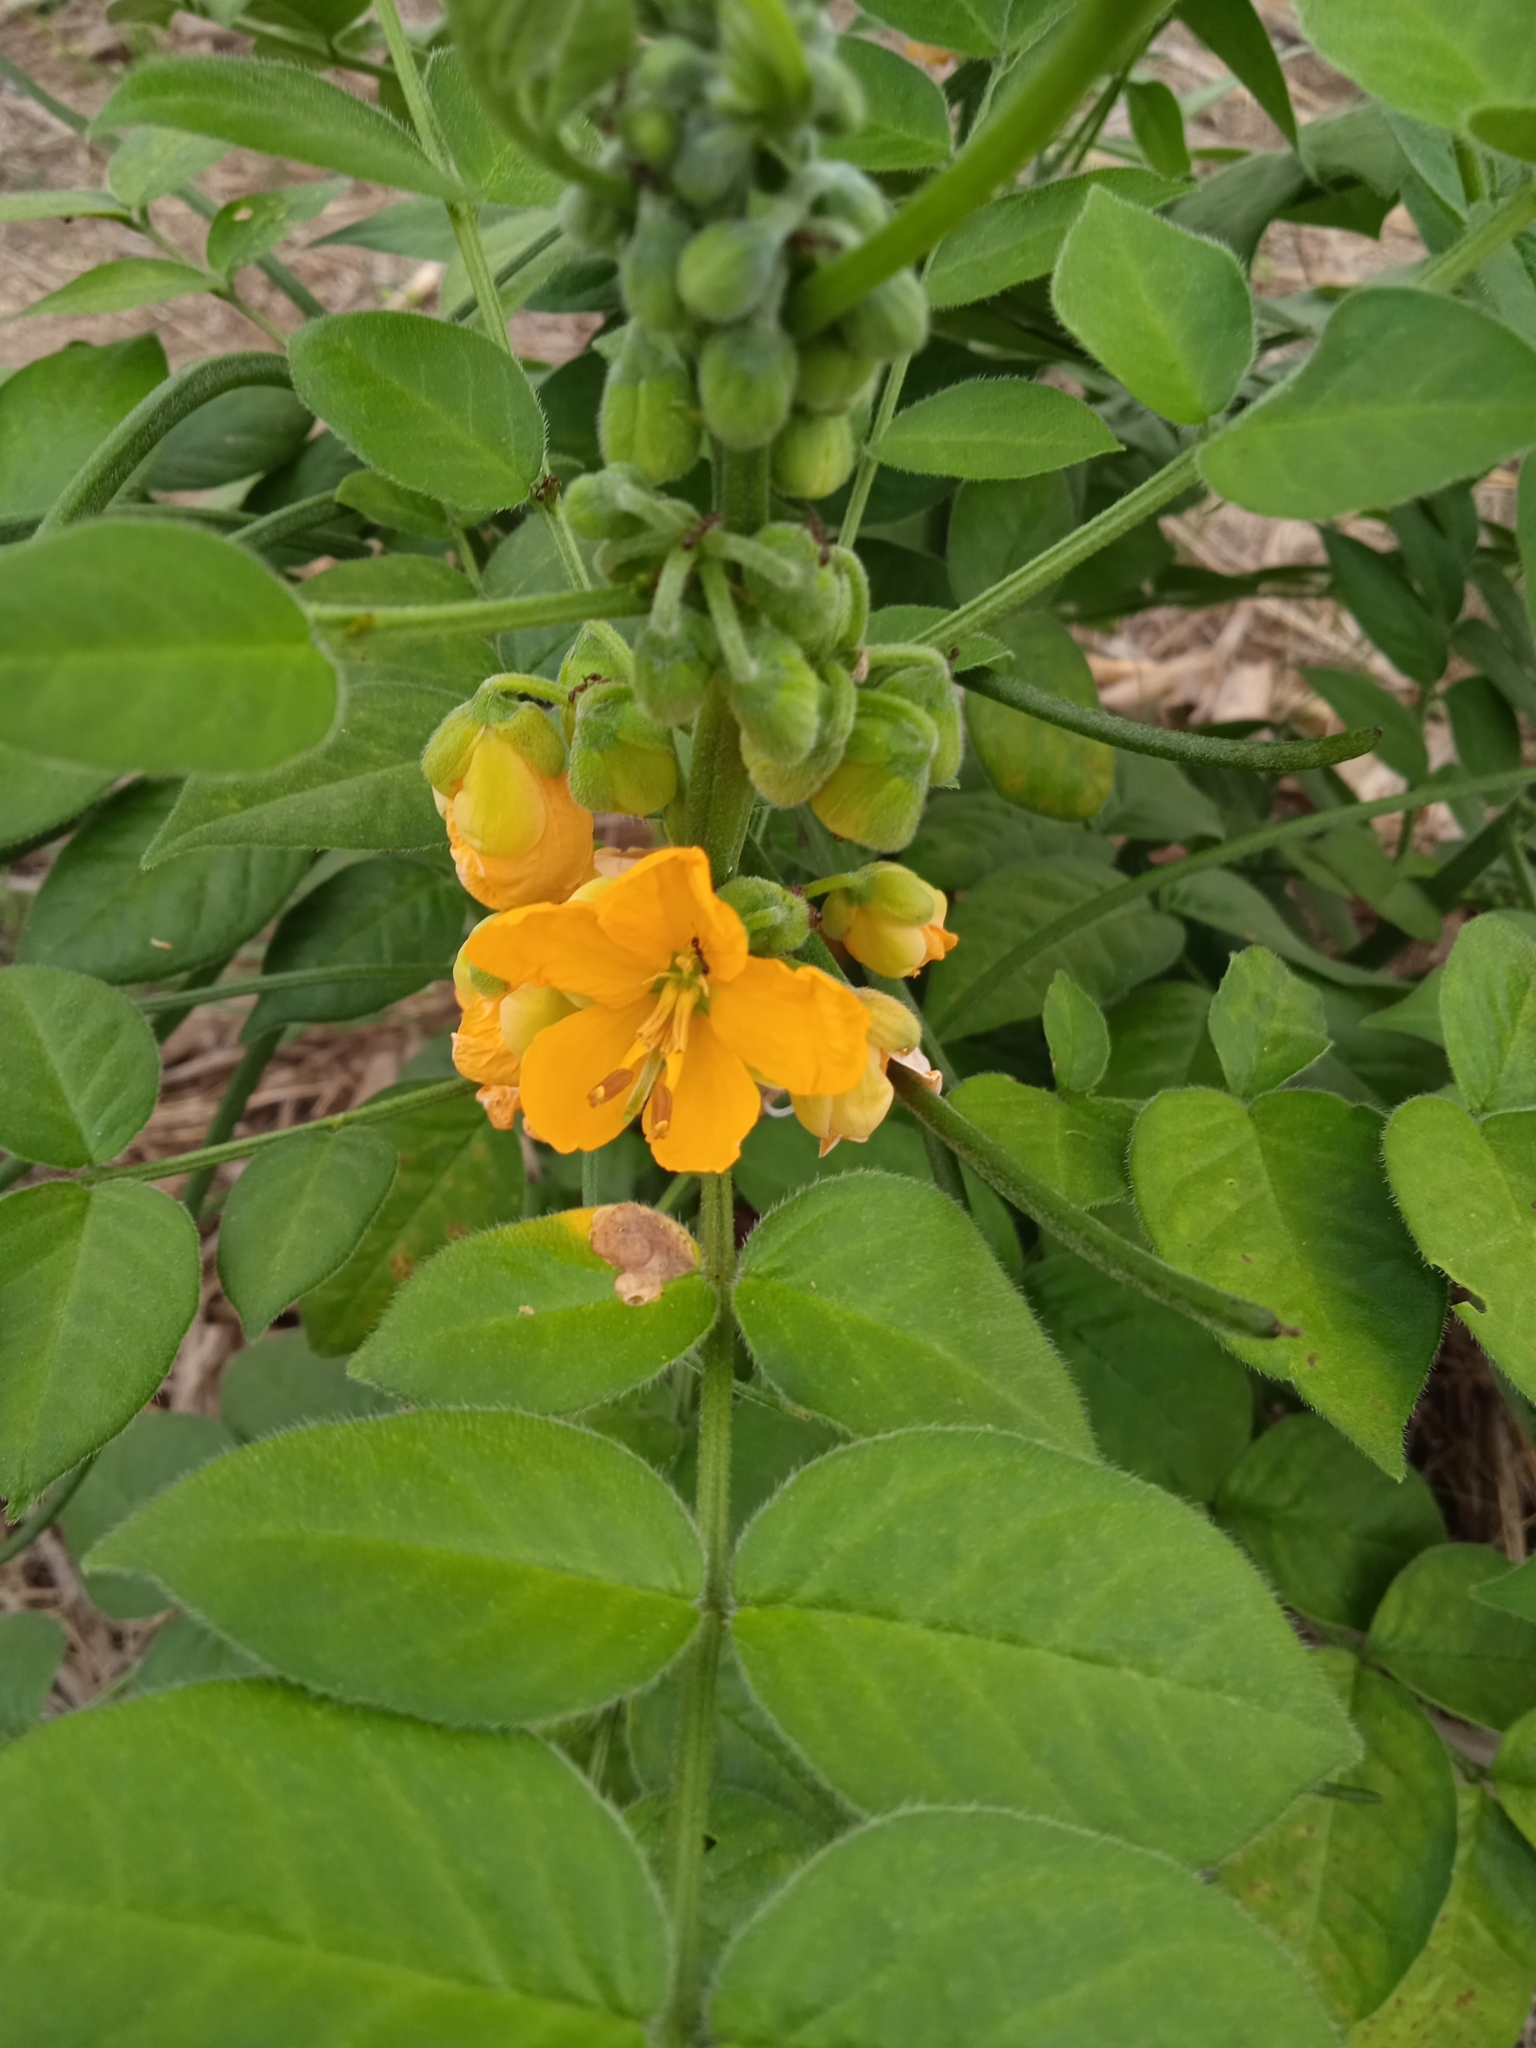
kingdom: Plantae
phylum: Tracheophyta
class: Magnoliopsida
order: Fabales
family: Fabaceae
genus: Senna
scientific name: Senna hirsuta
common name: Woolly senna
